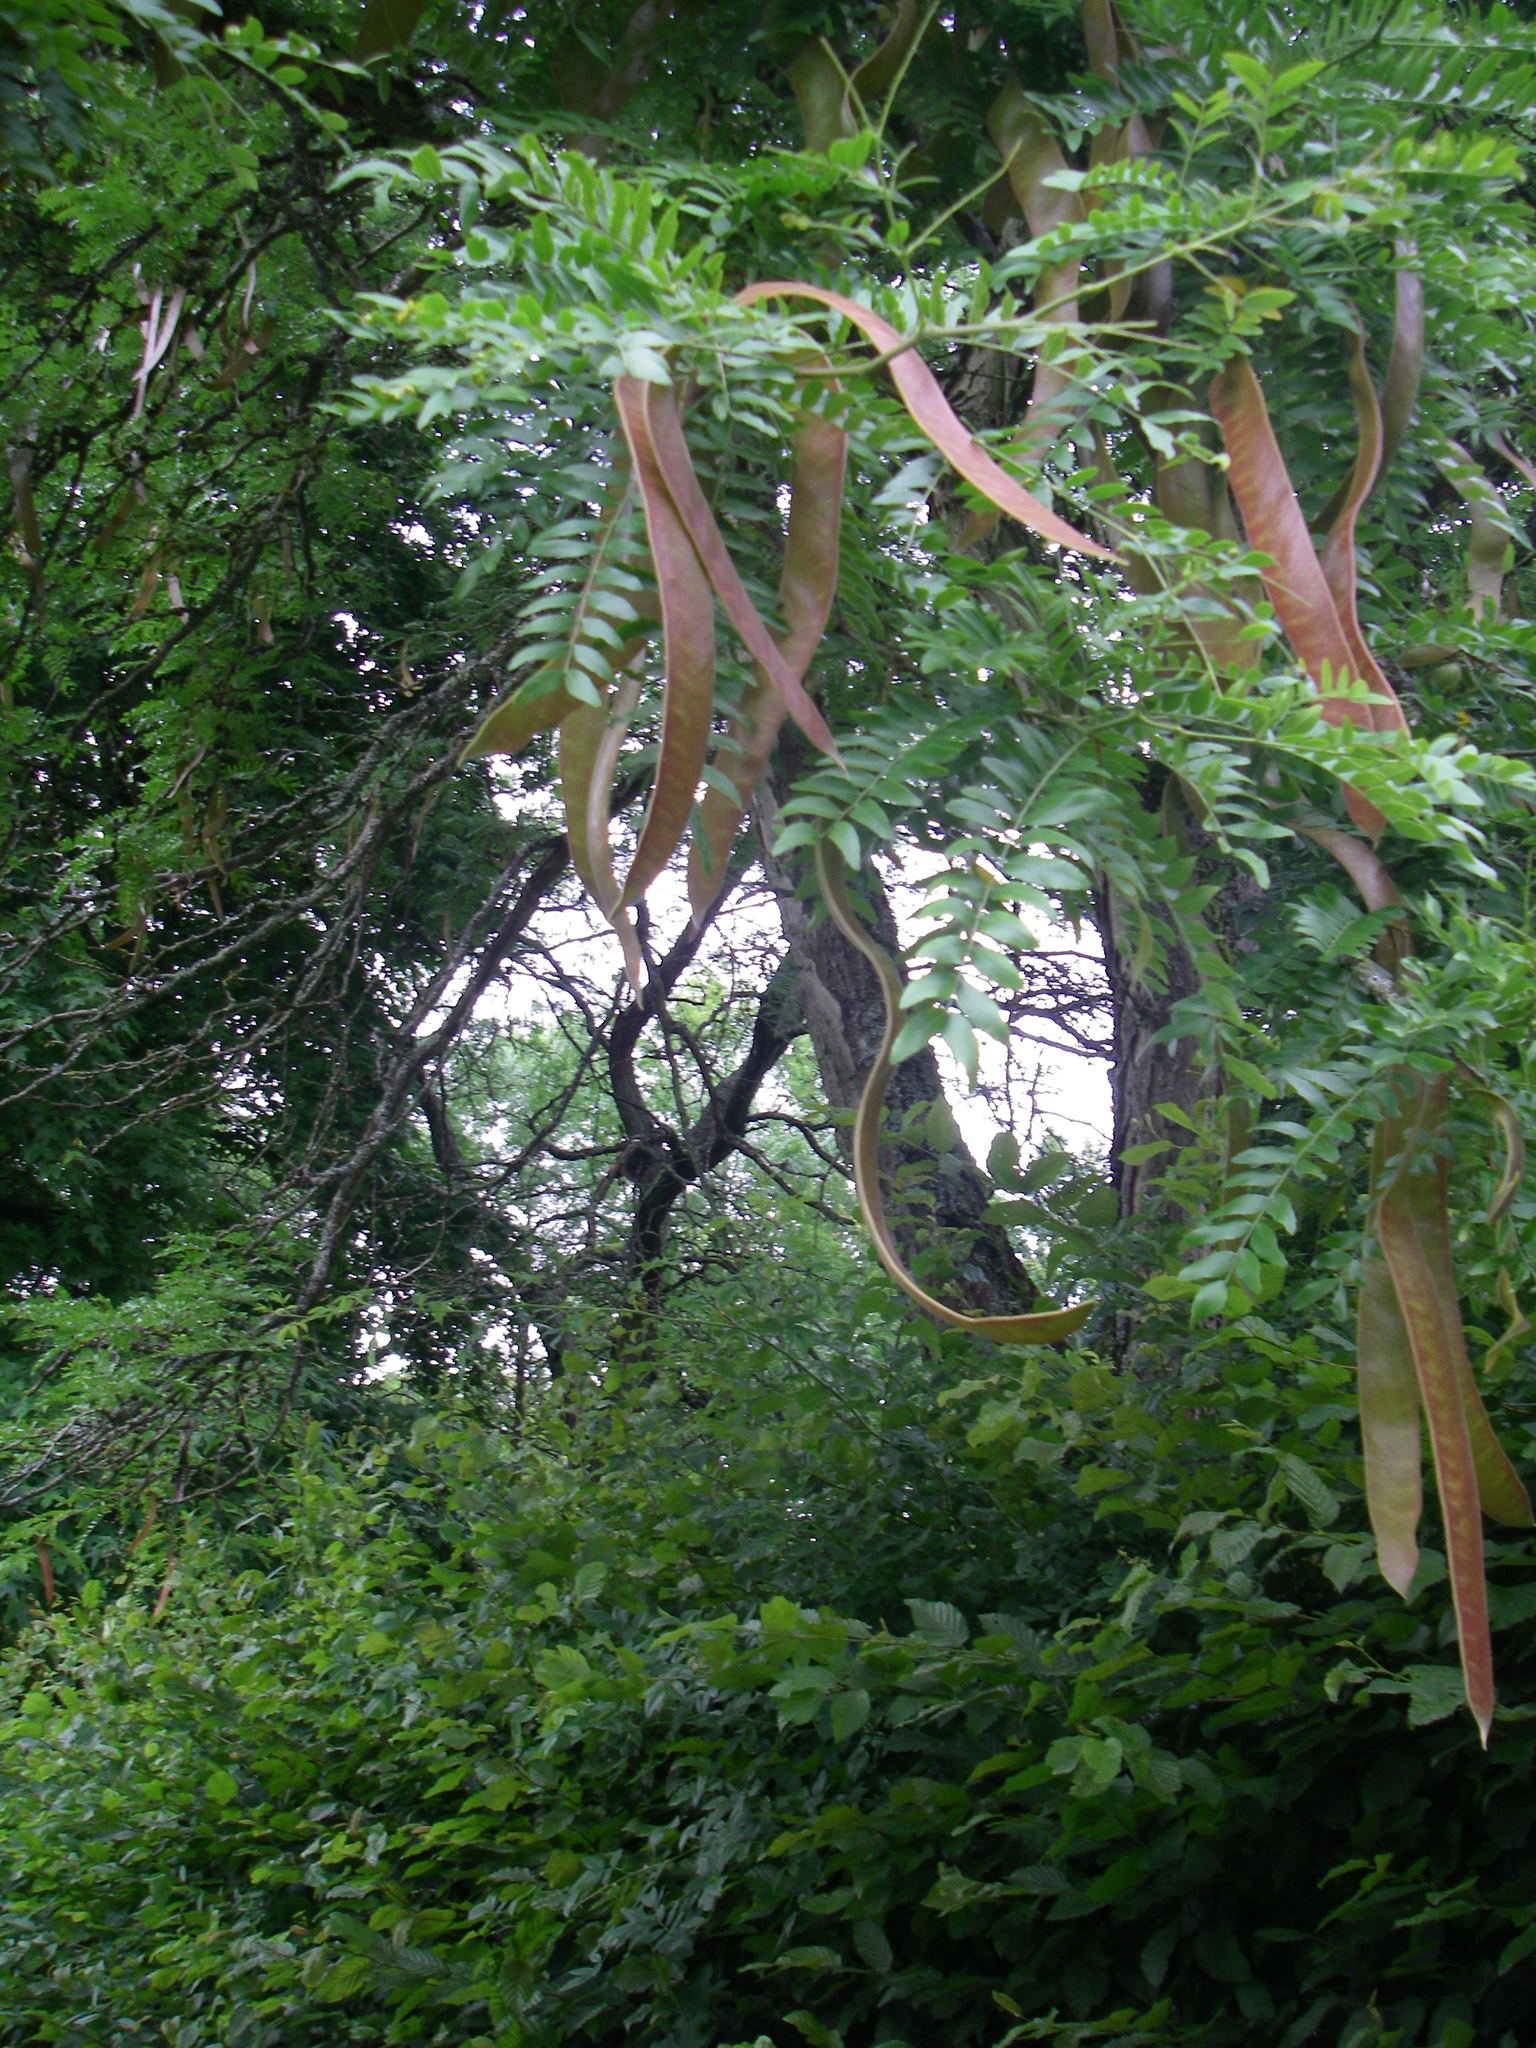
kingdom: Plantae
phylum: Tracheophyta
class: Magnoliopsida
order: Fabales
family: Fabaceae
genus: Gleditsia
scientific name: Gleditsia triacanthos
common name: Common honeylocust
